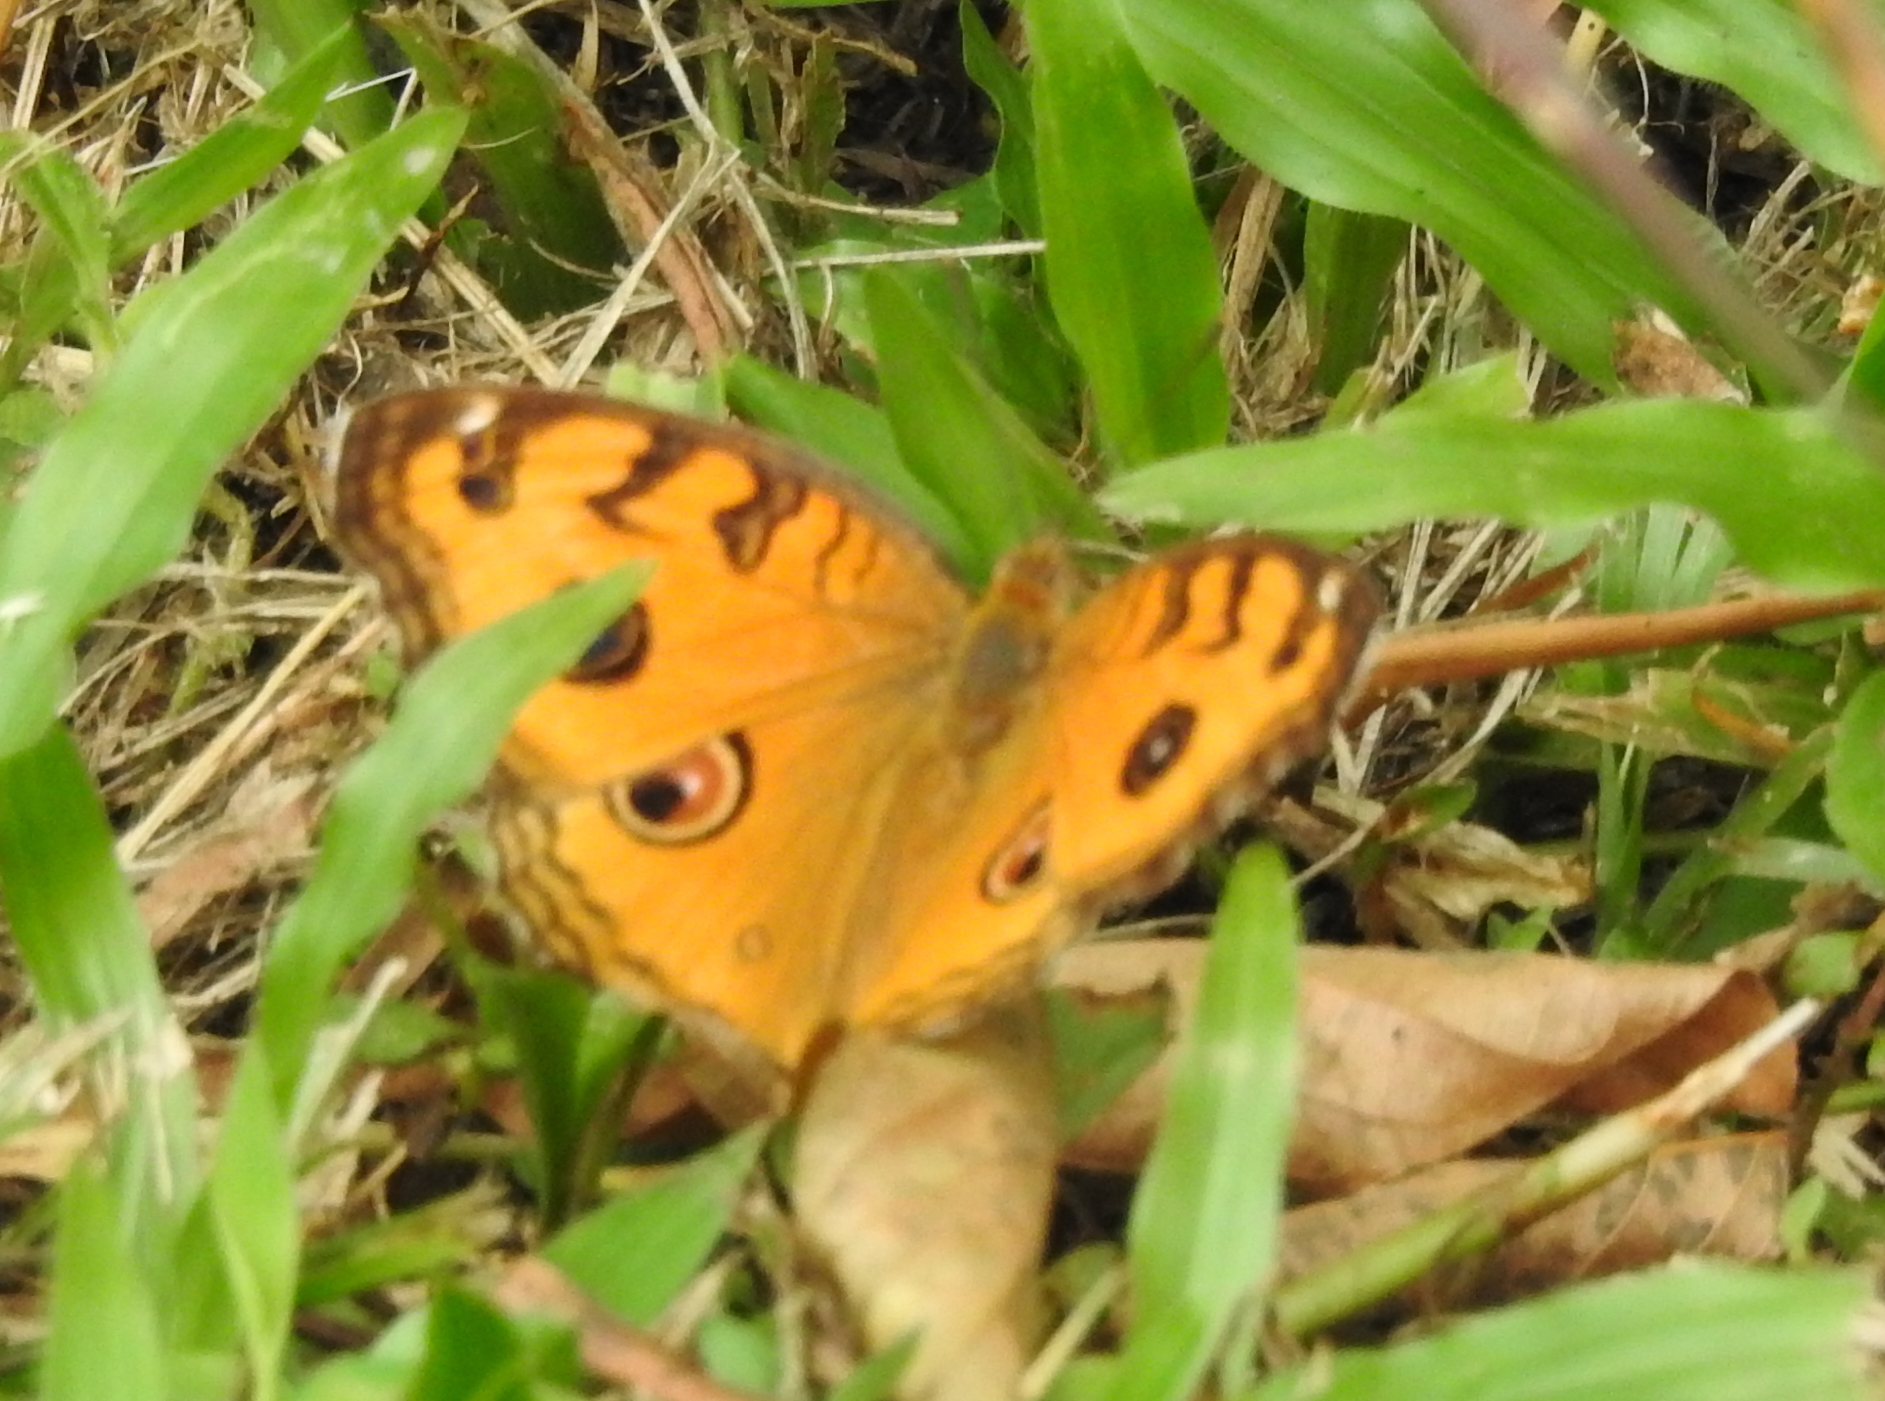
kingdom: Animalia
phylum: Arthropoda
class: Insecta
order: Lepidoptera
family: Nymphalidae
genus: Junonia
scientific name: Junonia almana
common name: Peacock pansy
